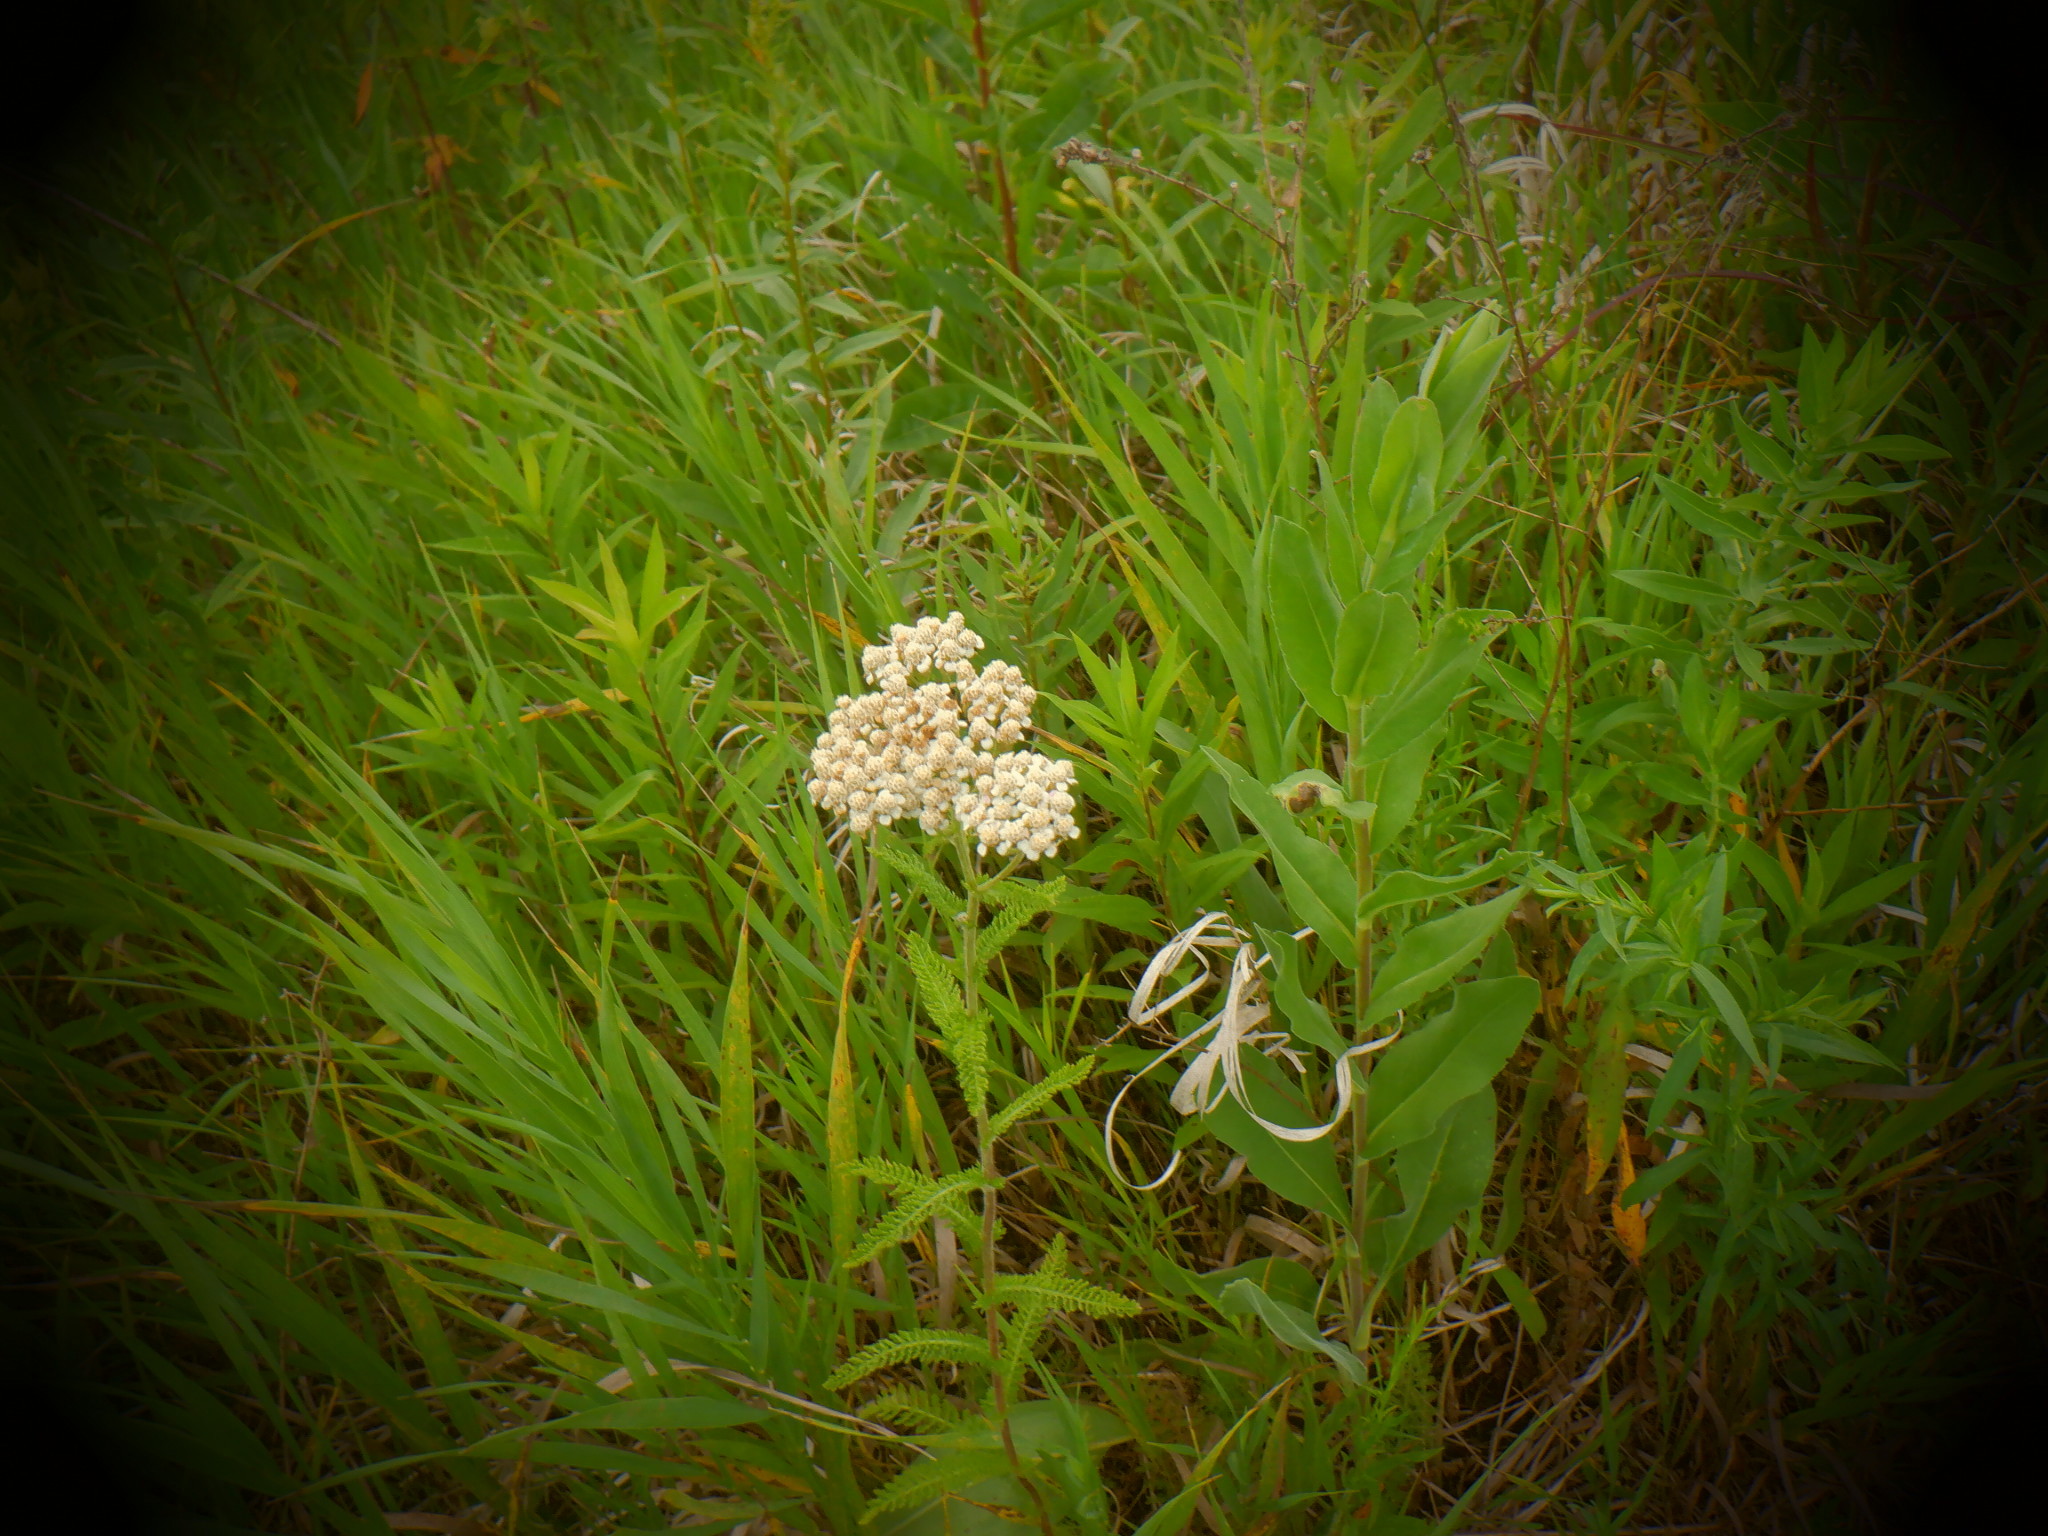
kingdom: Plantae
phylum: Tracheophyta
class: Magnoliopsida
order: Asterales
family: Asteraceae
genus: Achillea
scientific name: Achillea millefolium
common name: Yarrow
